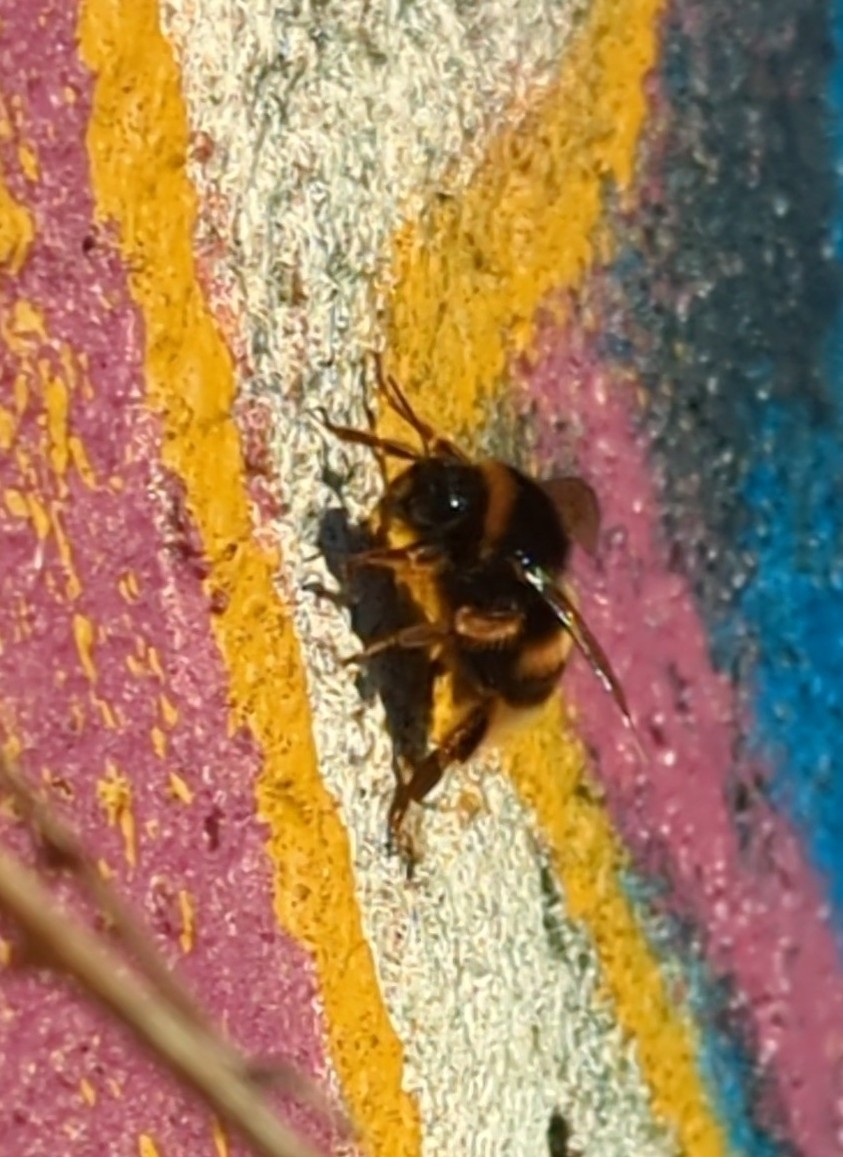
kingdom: Animalia
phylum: Arthropoda
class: Insecta
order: Hymenoptera
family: Apidae
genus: Bombus
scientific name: Bombus terrestris
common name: Buff-tailed bumblebee
